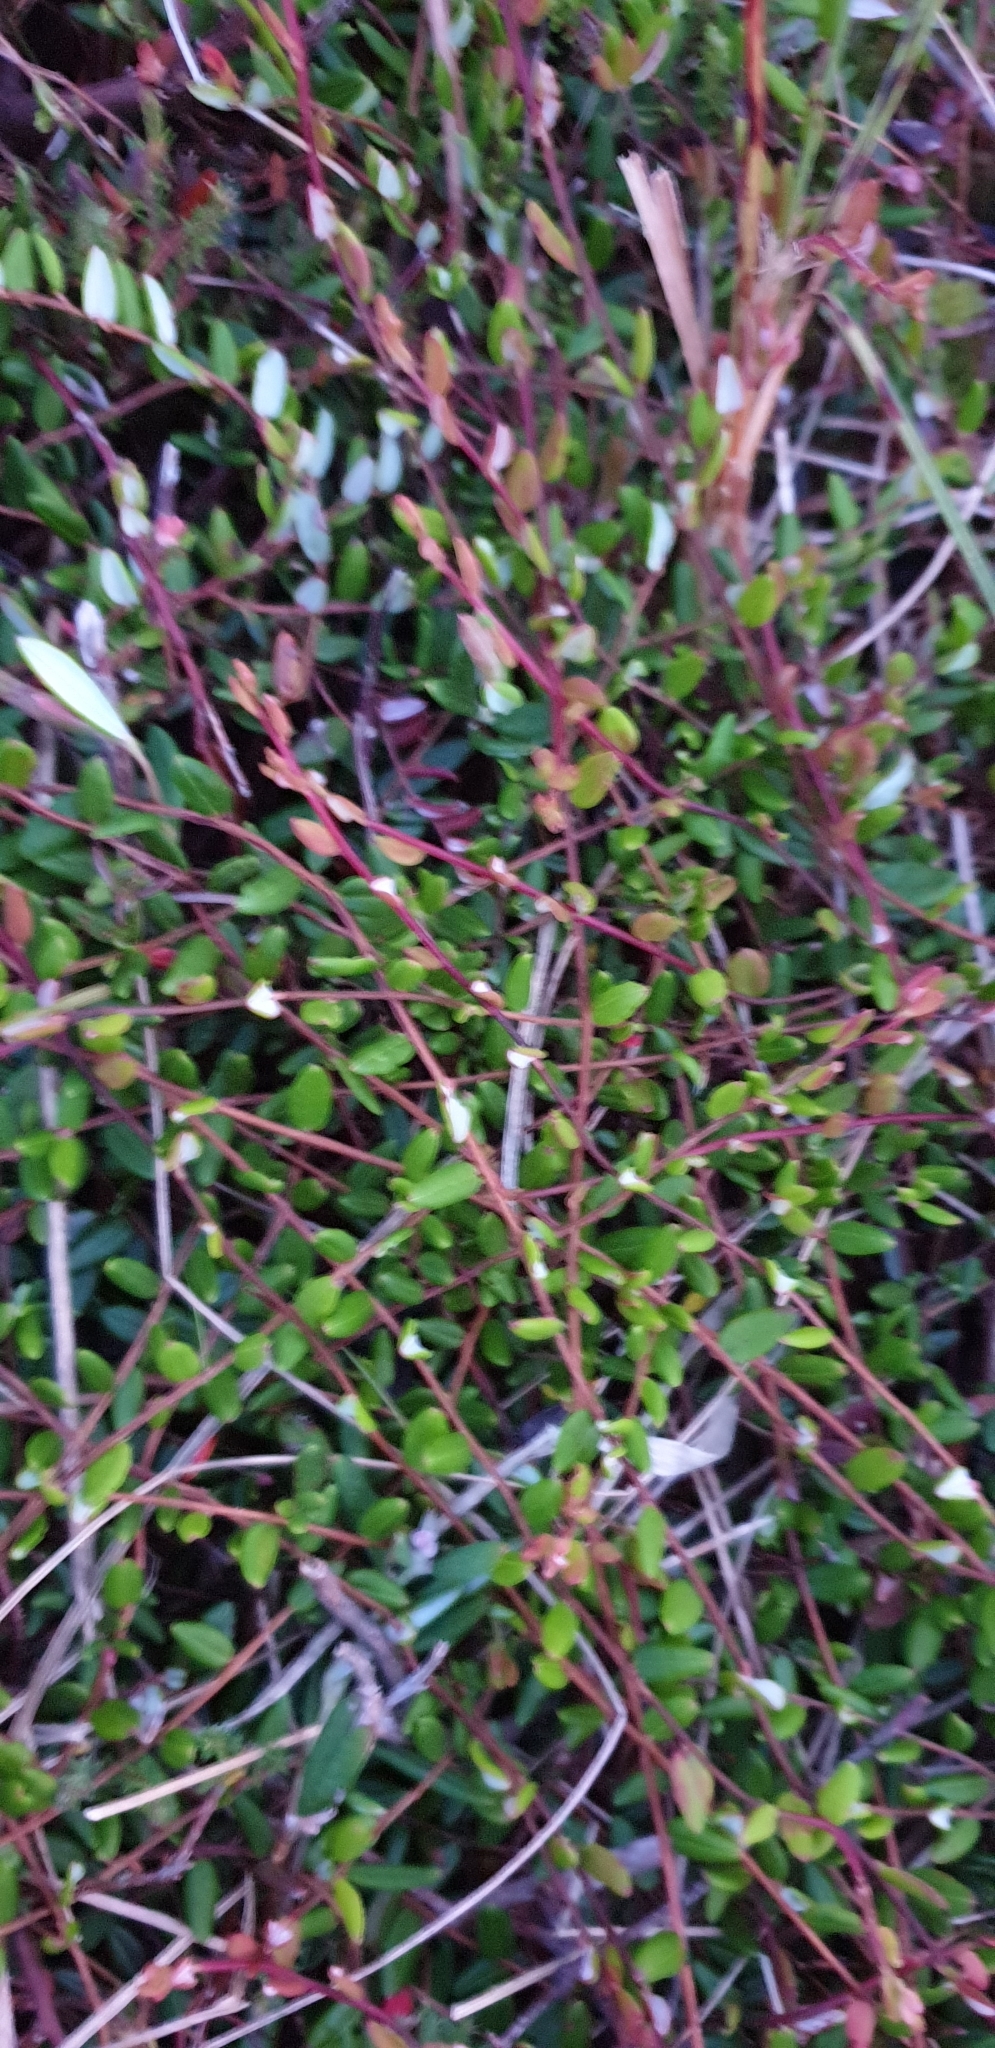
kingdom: Plantae
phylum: Tracheophyta
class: Magnoliopsida
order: Ericales
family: Ericaceae
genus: Vaccinium
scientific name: Vaccinium oxycoccos
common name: Cranberry
